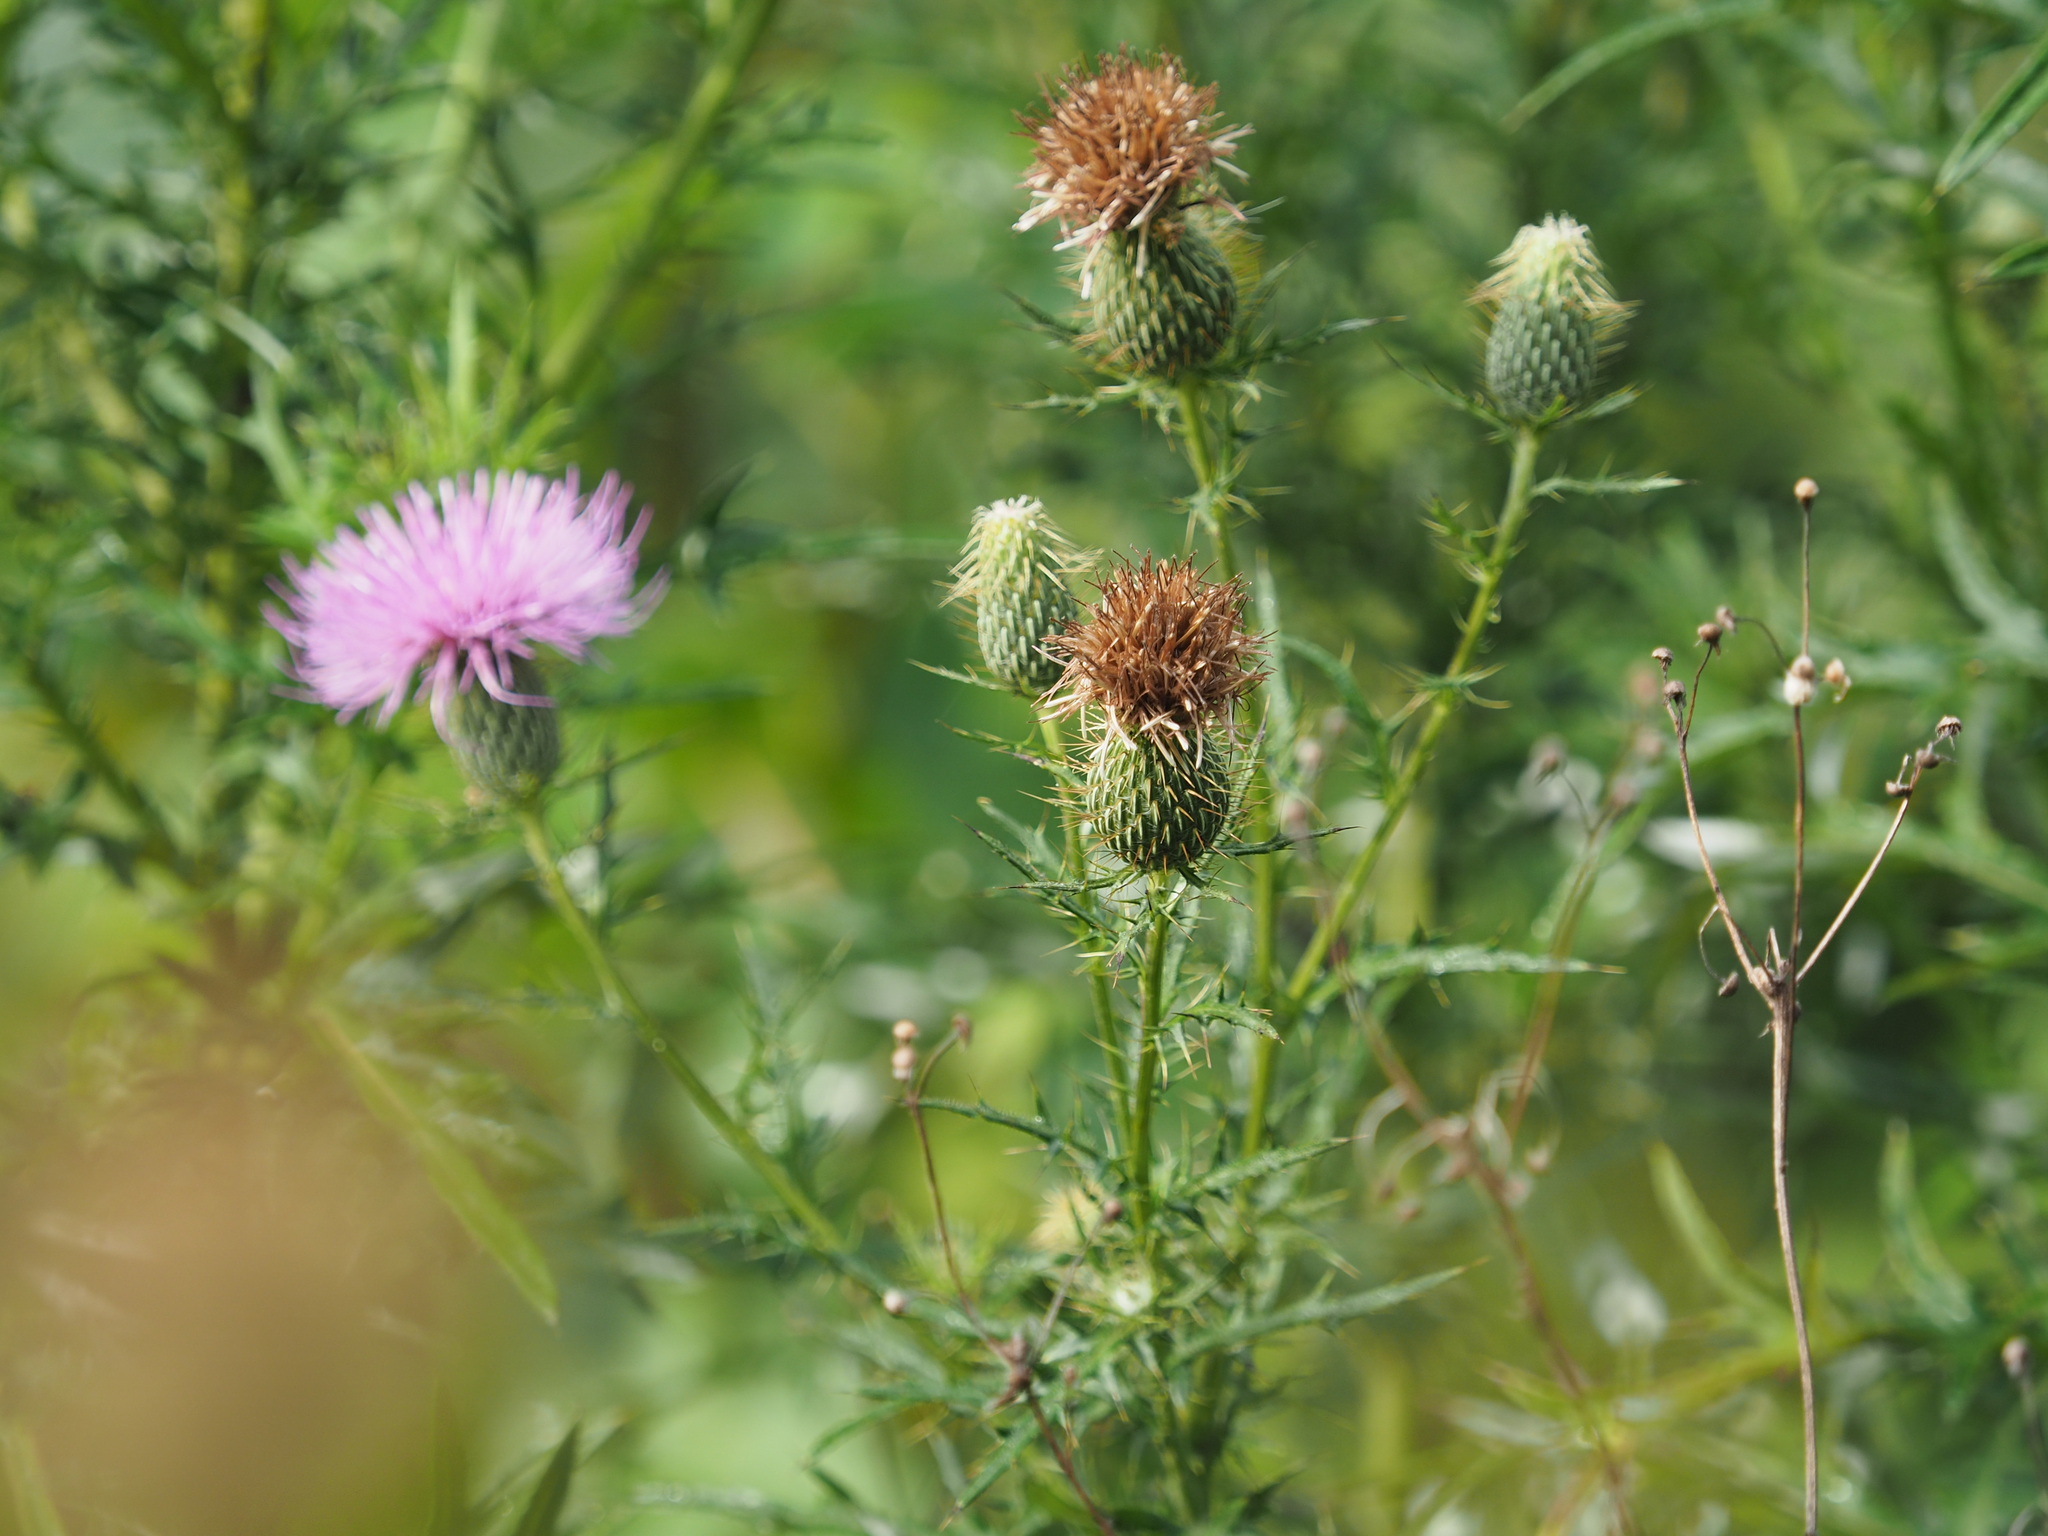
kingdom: Plantae
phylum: Tracheophyta
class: Magnoliopsida
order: Asterales
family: Asteraceae
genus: Cirsium
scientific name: Cirsium discolor
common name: Field thistle
